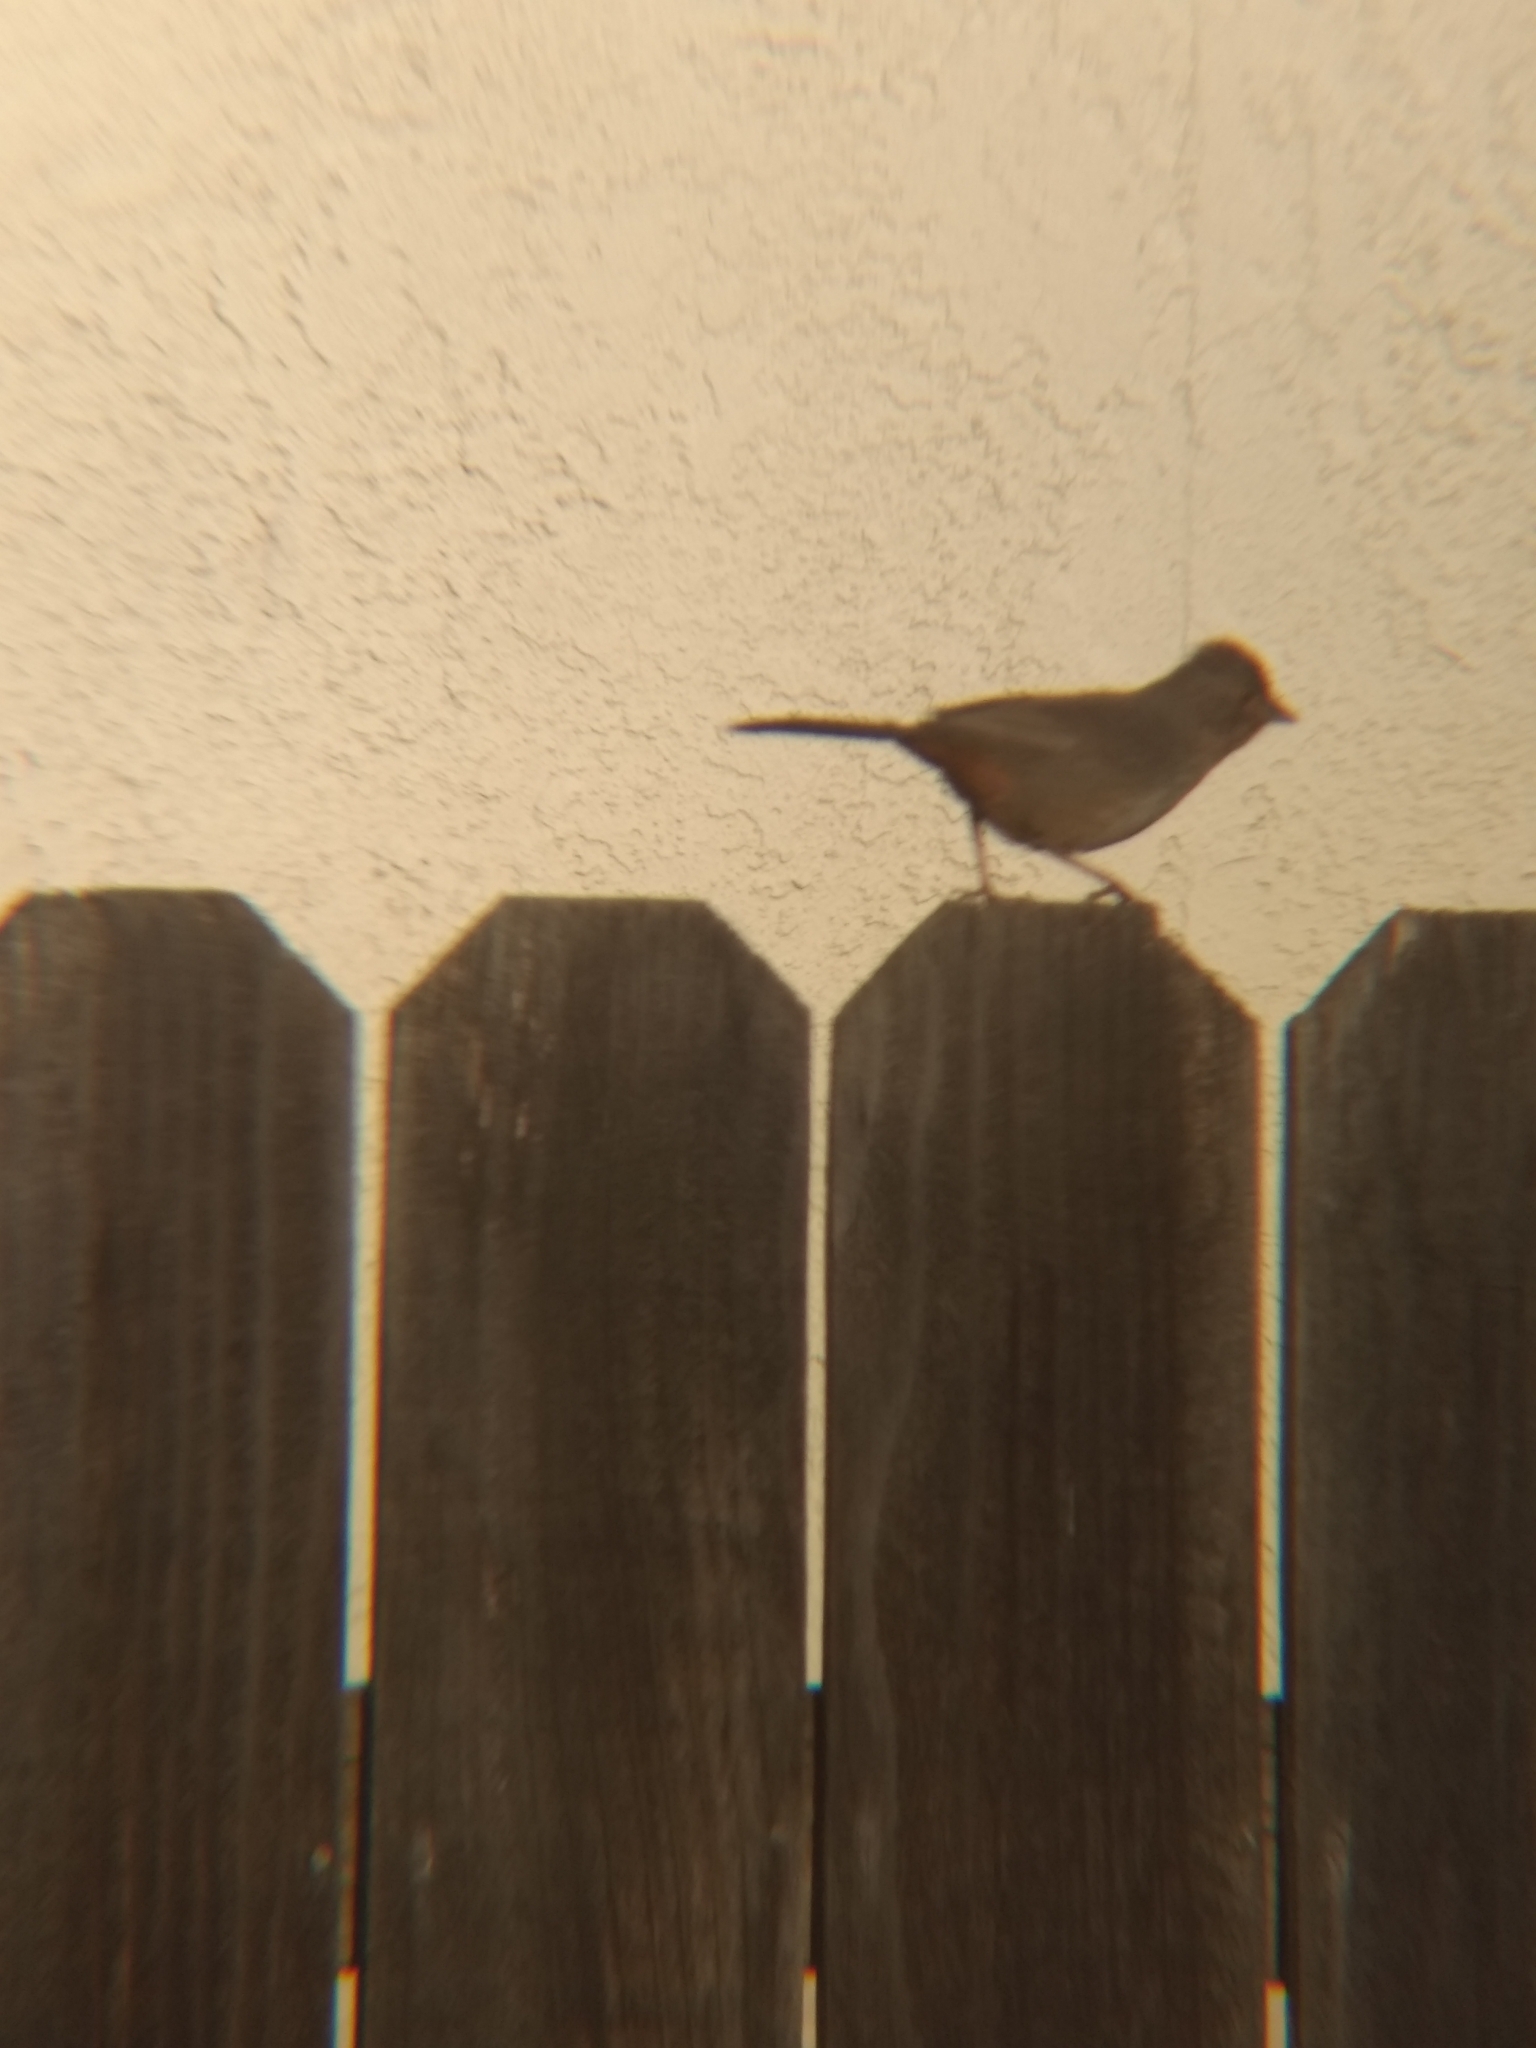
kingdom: Animalia
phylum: Chordata
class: Aves
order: Passeriformes
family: Passerellidae
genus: Melozone
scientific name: Melozone crissalis
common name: California towhee
